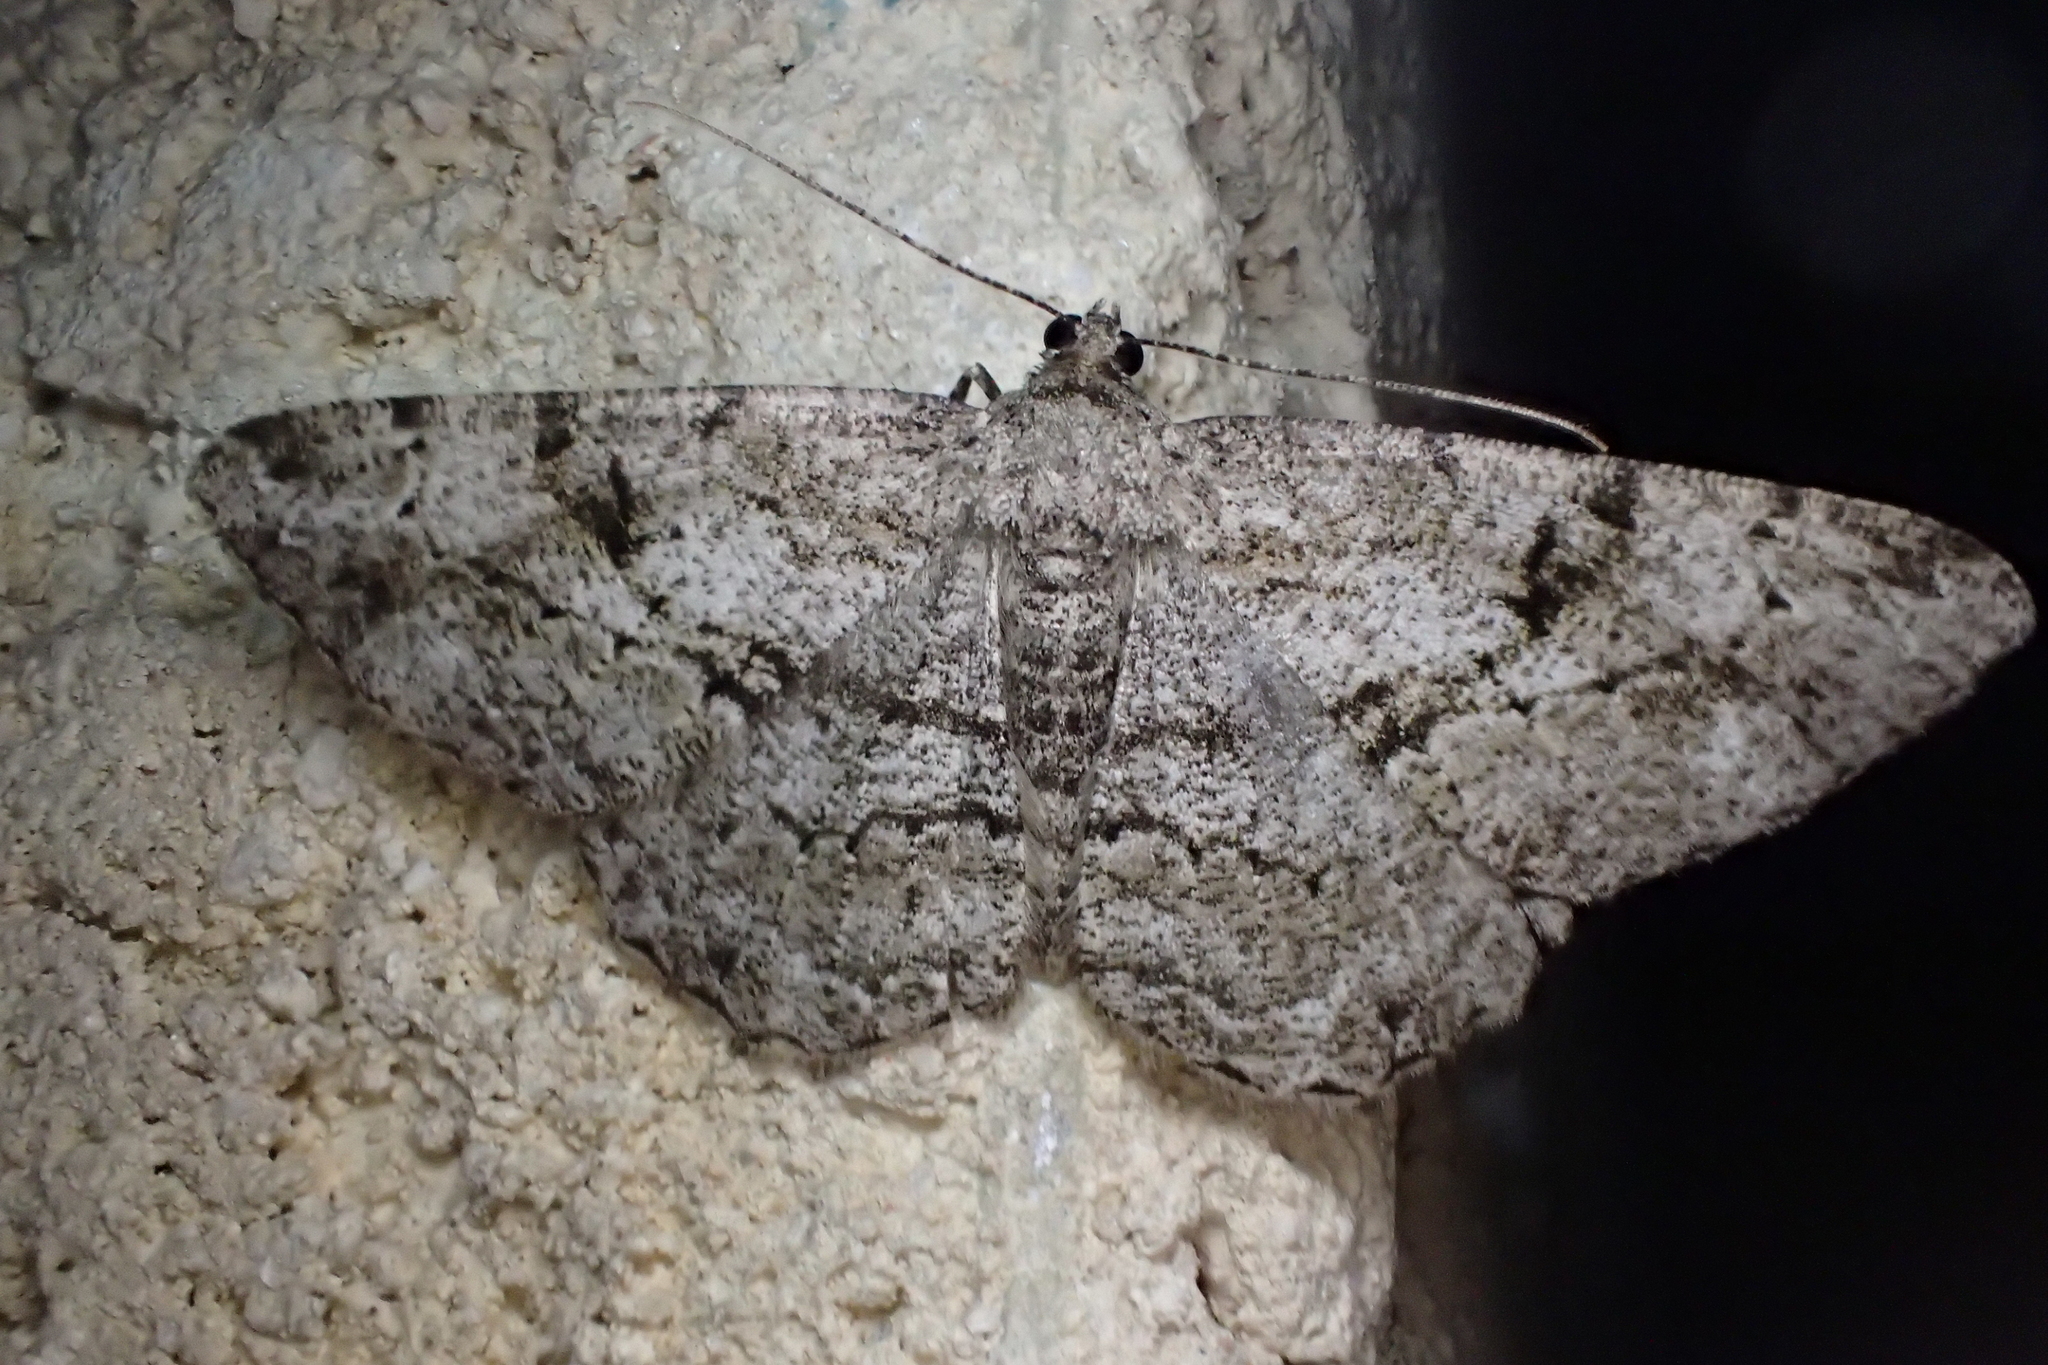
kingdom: Animalia
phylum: Arthropoda
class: Insecta
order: Lepidoptera
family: Geometridae
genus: Peribatodes
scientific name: Peribatodes rhomboidaria
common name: Willow beauty
